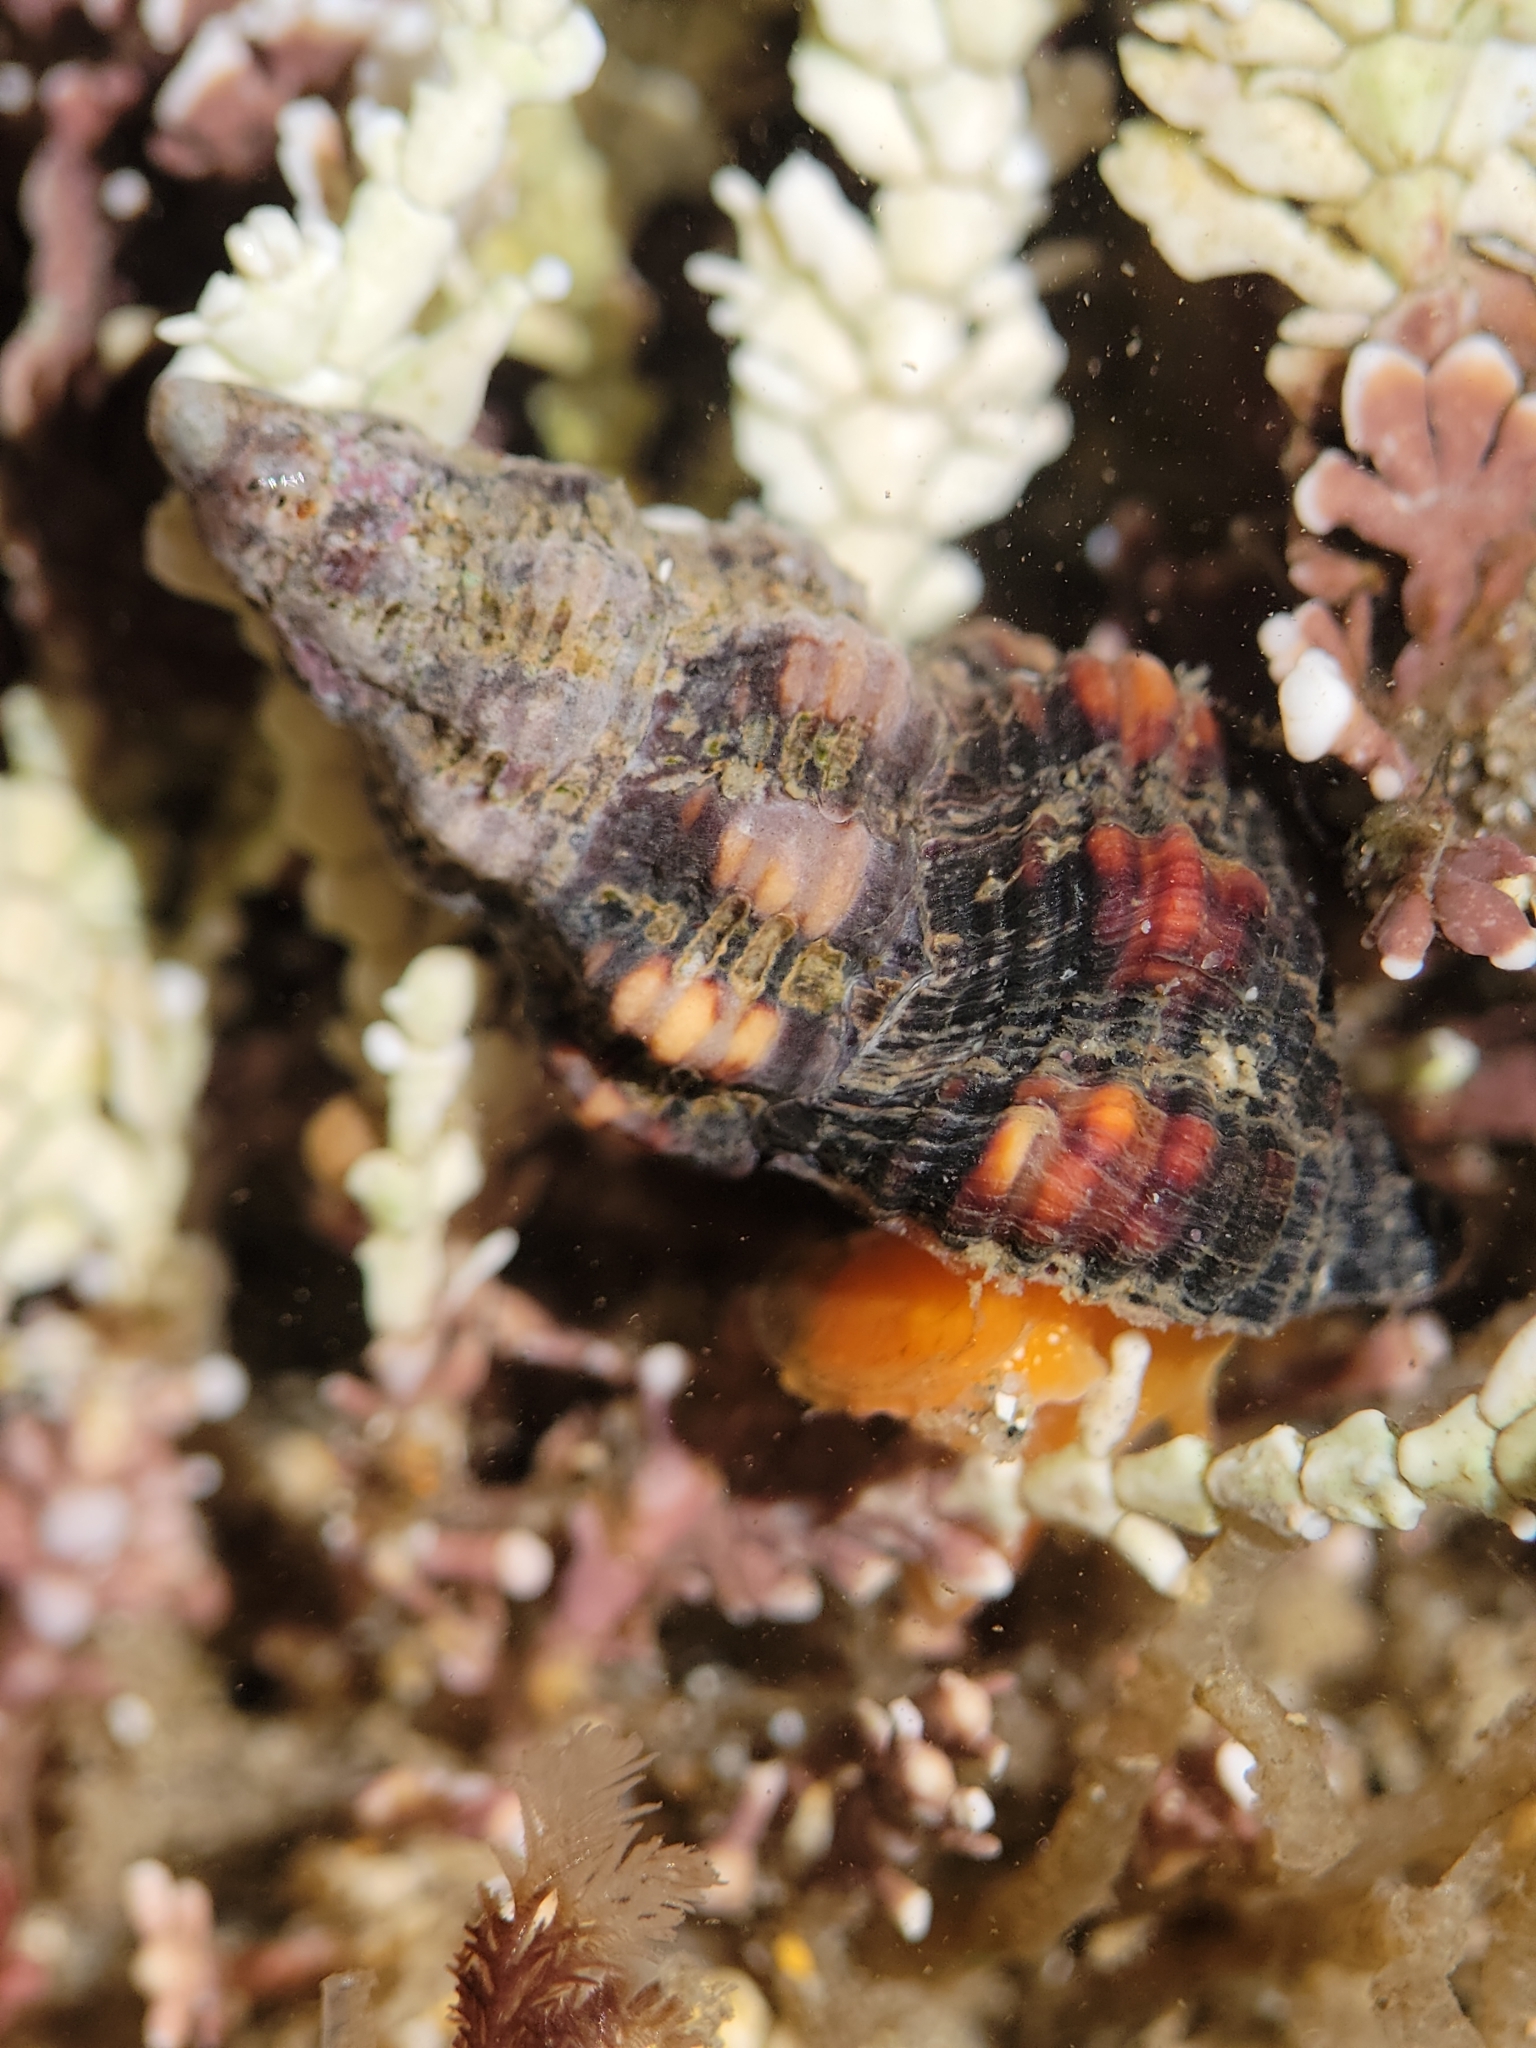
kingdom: Animalia
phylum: Mollusca
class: Gastropoda
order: Neogastropoda
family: Fasciolariidae
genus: Hesperaptyxis
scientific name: Hesperaptyxis luteopictus
